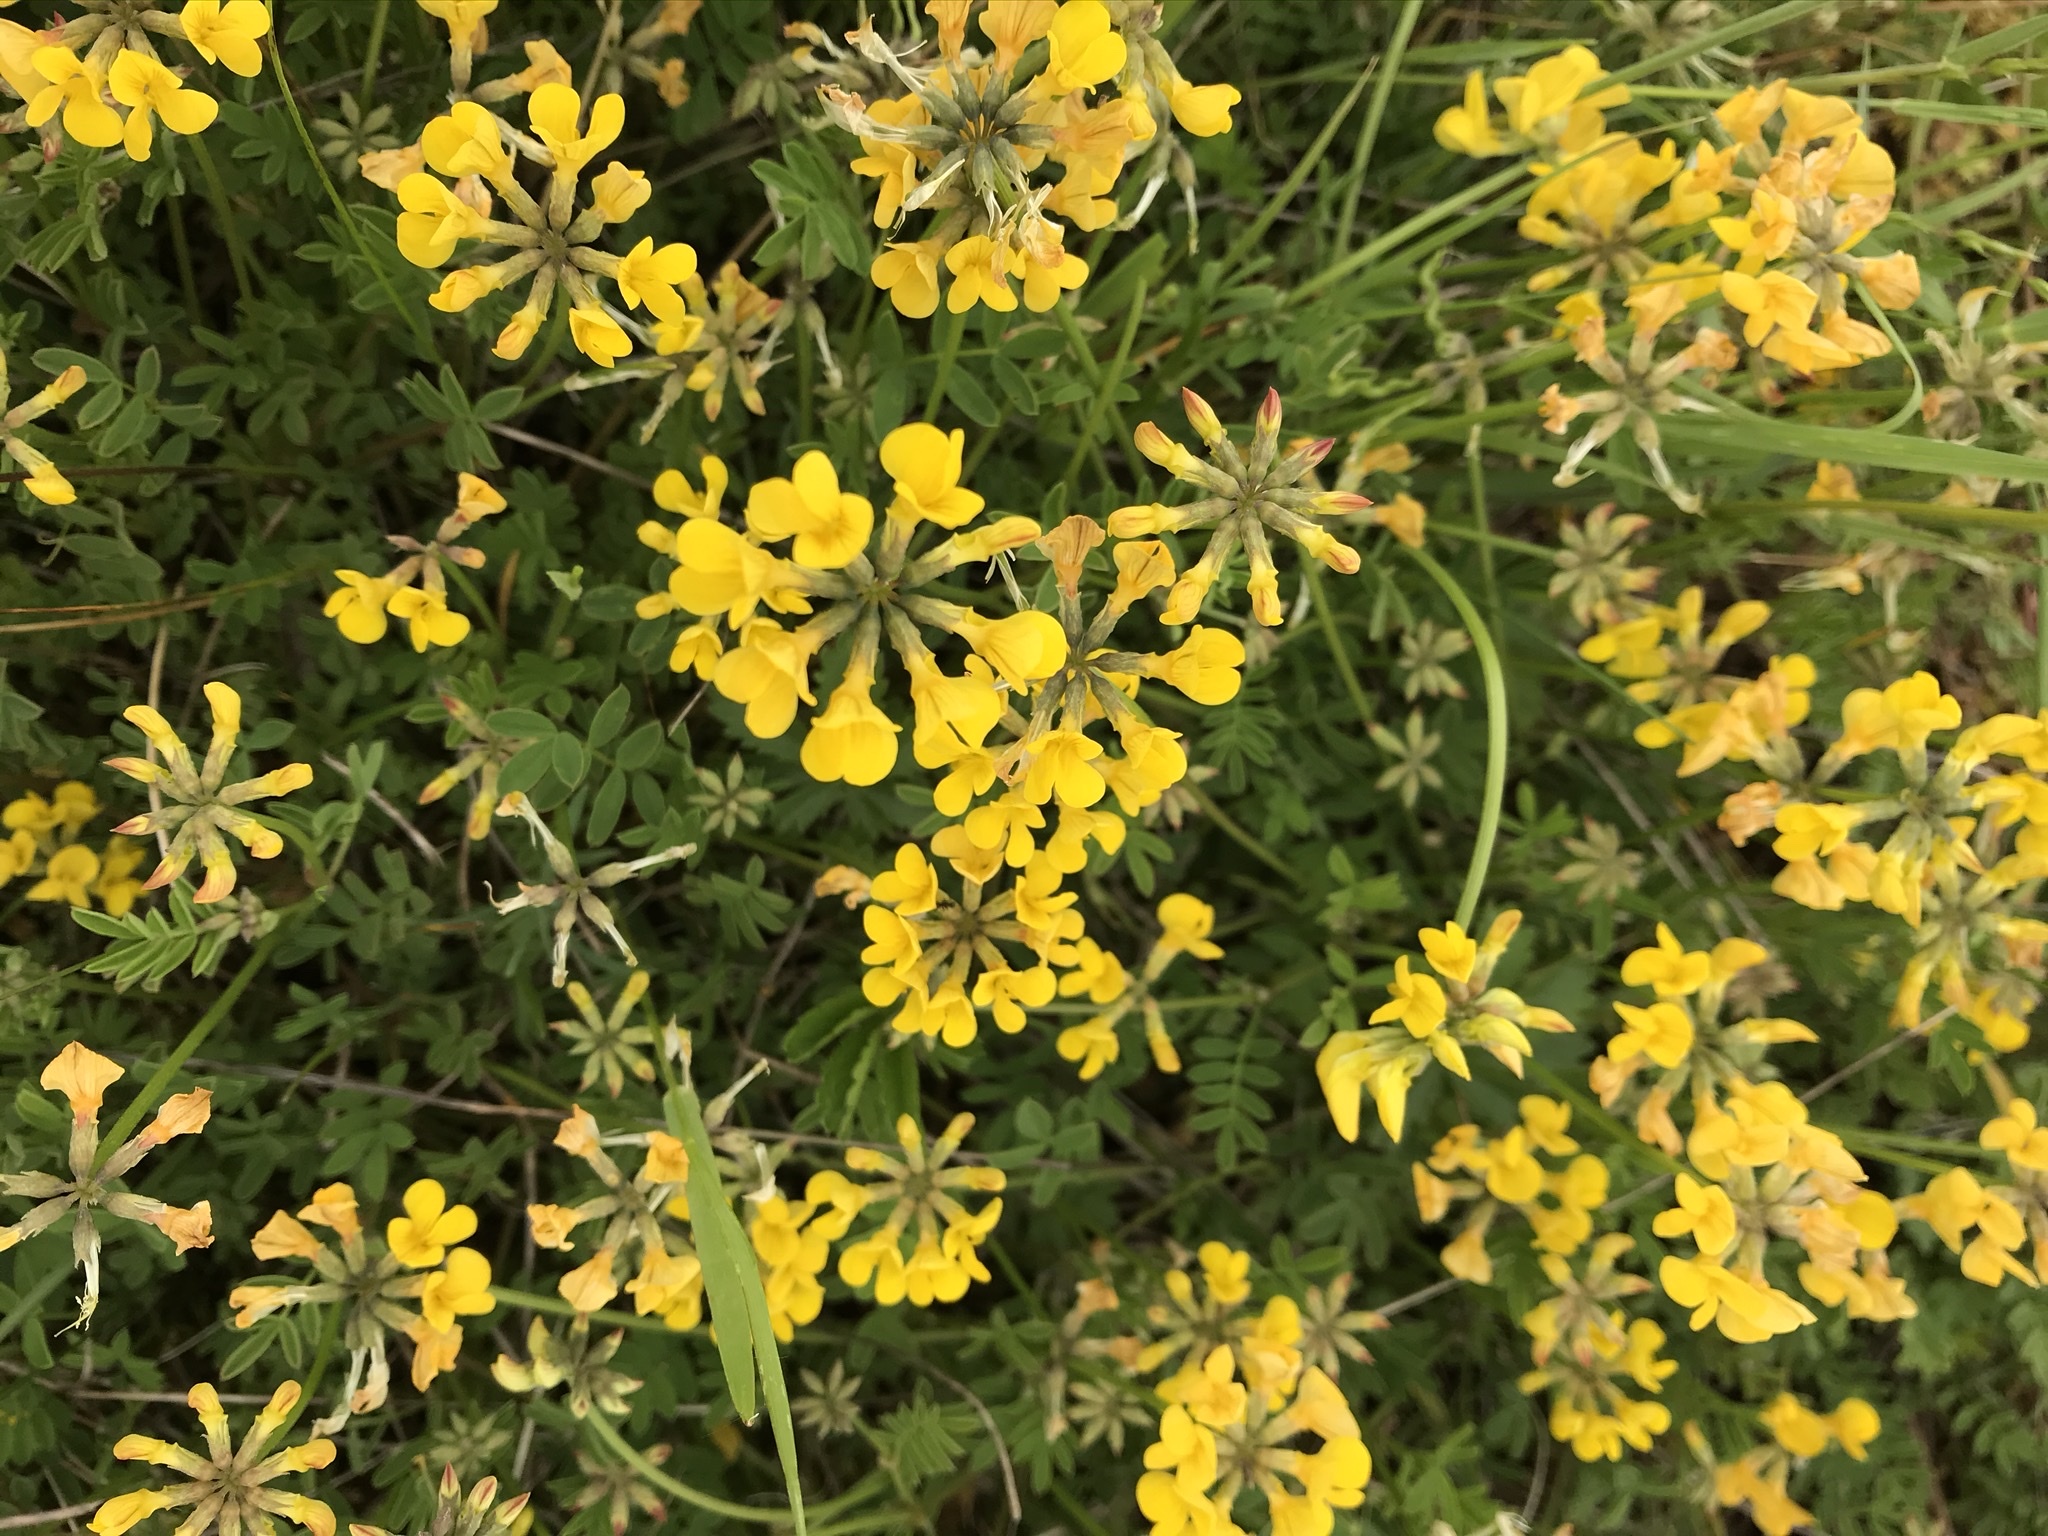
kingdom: Plantae
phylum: Tracheophyta
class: Magnoliopsida
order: Fabales
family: Fabaceae
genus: Hippocrepis
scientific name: Hippocrepis comosa
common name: Horseshoe vetch
